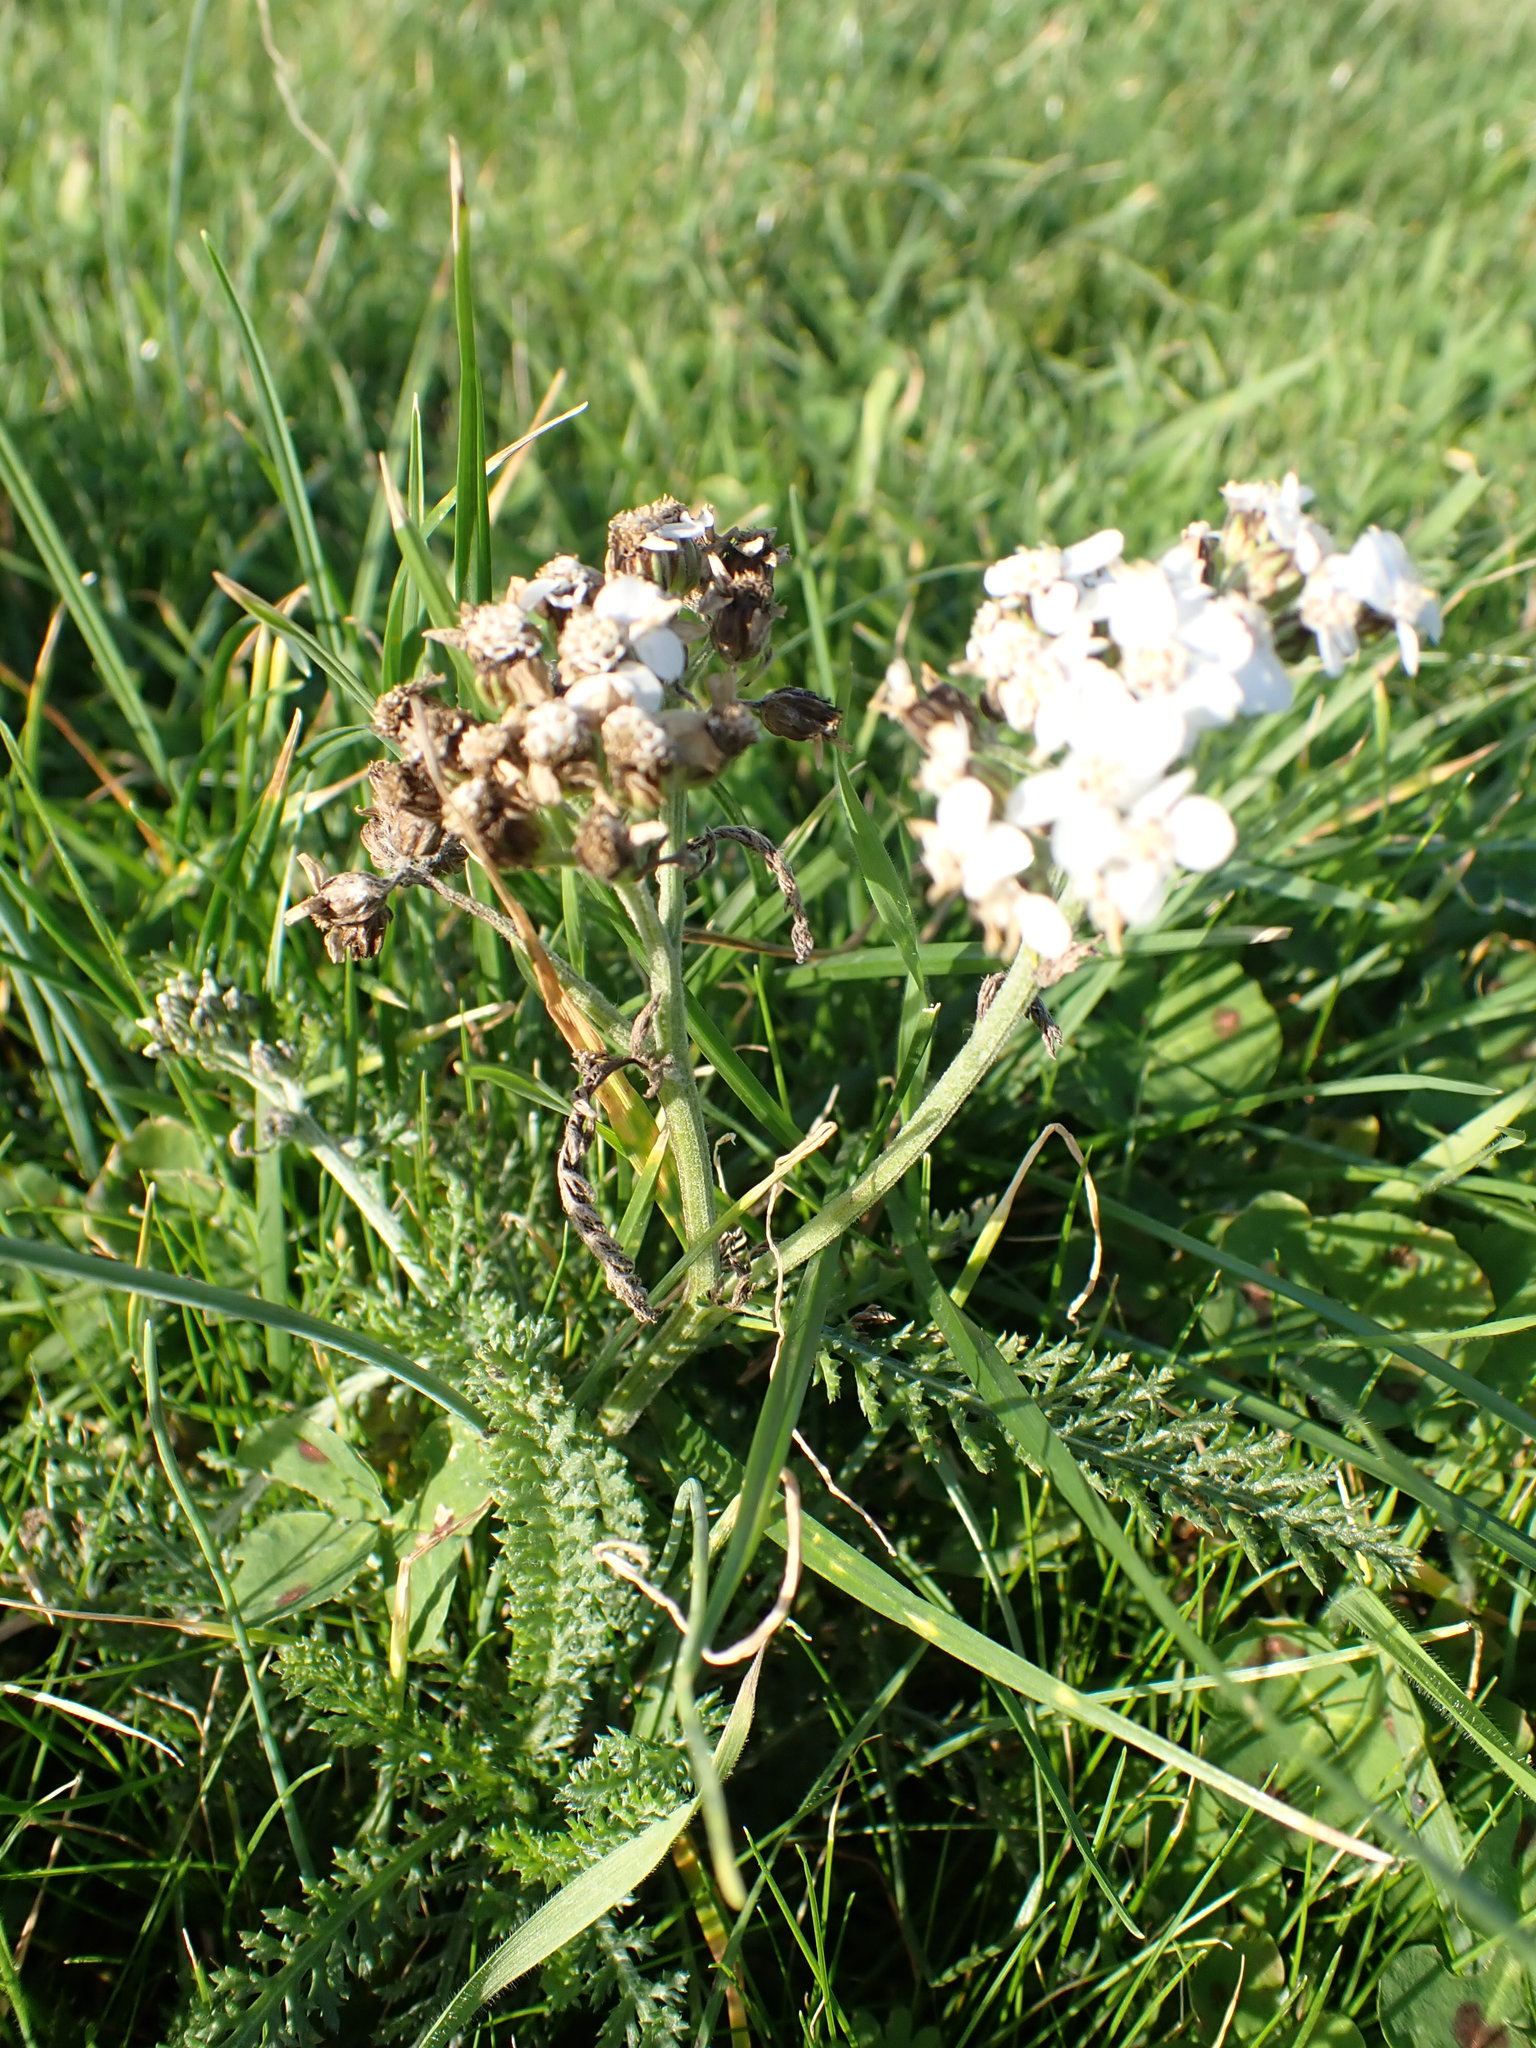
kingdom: Plantae
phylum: Tracheophyta
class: Magnoliopsida
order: Asterales
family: Asteraceae
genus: Achillea
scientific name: Achillea millefolium
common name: Yarrow
